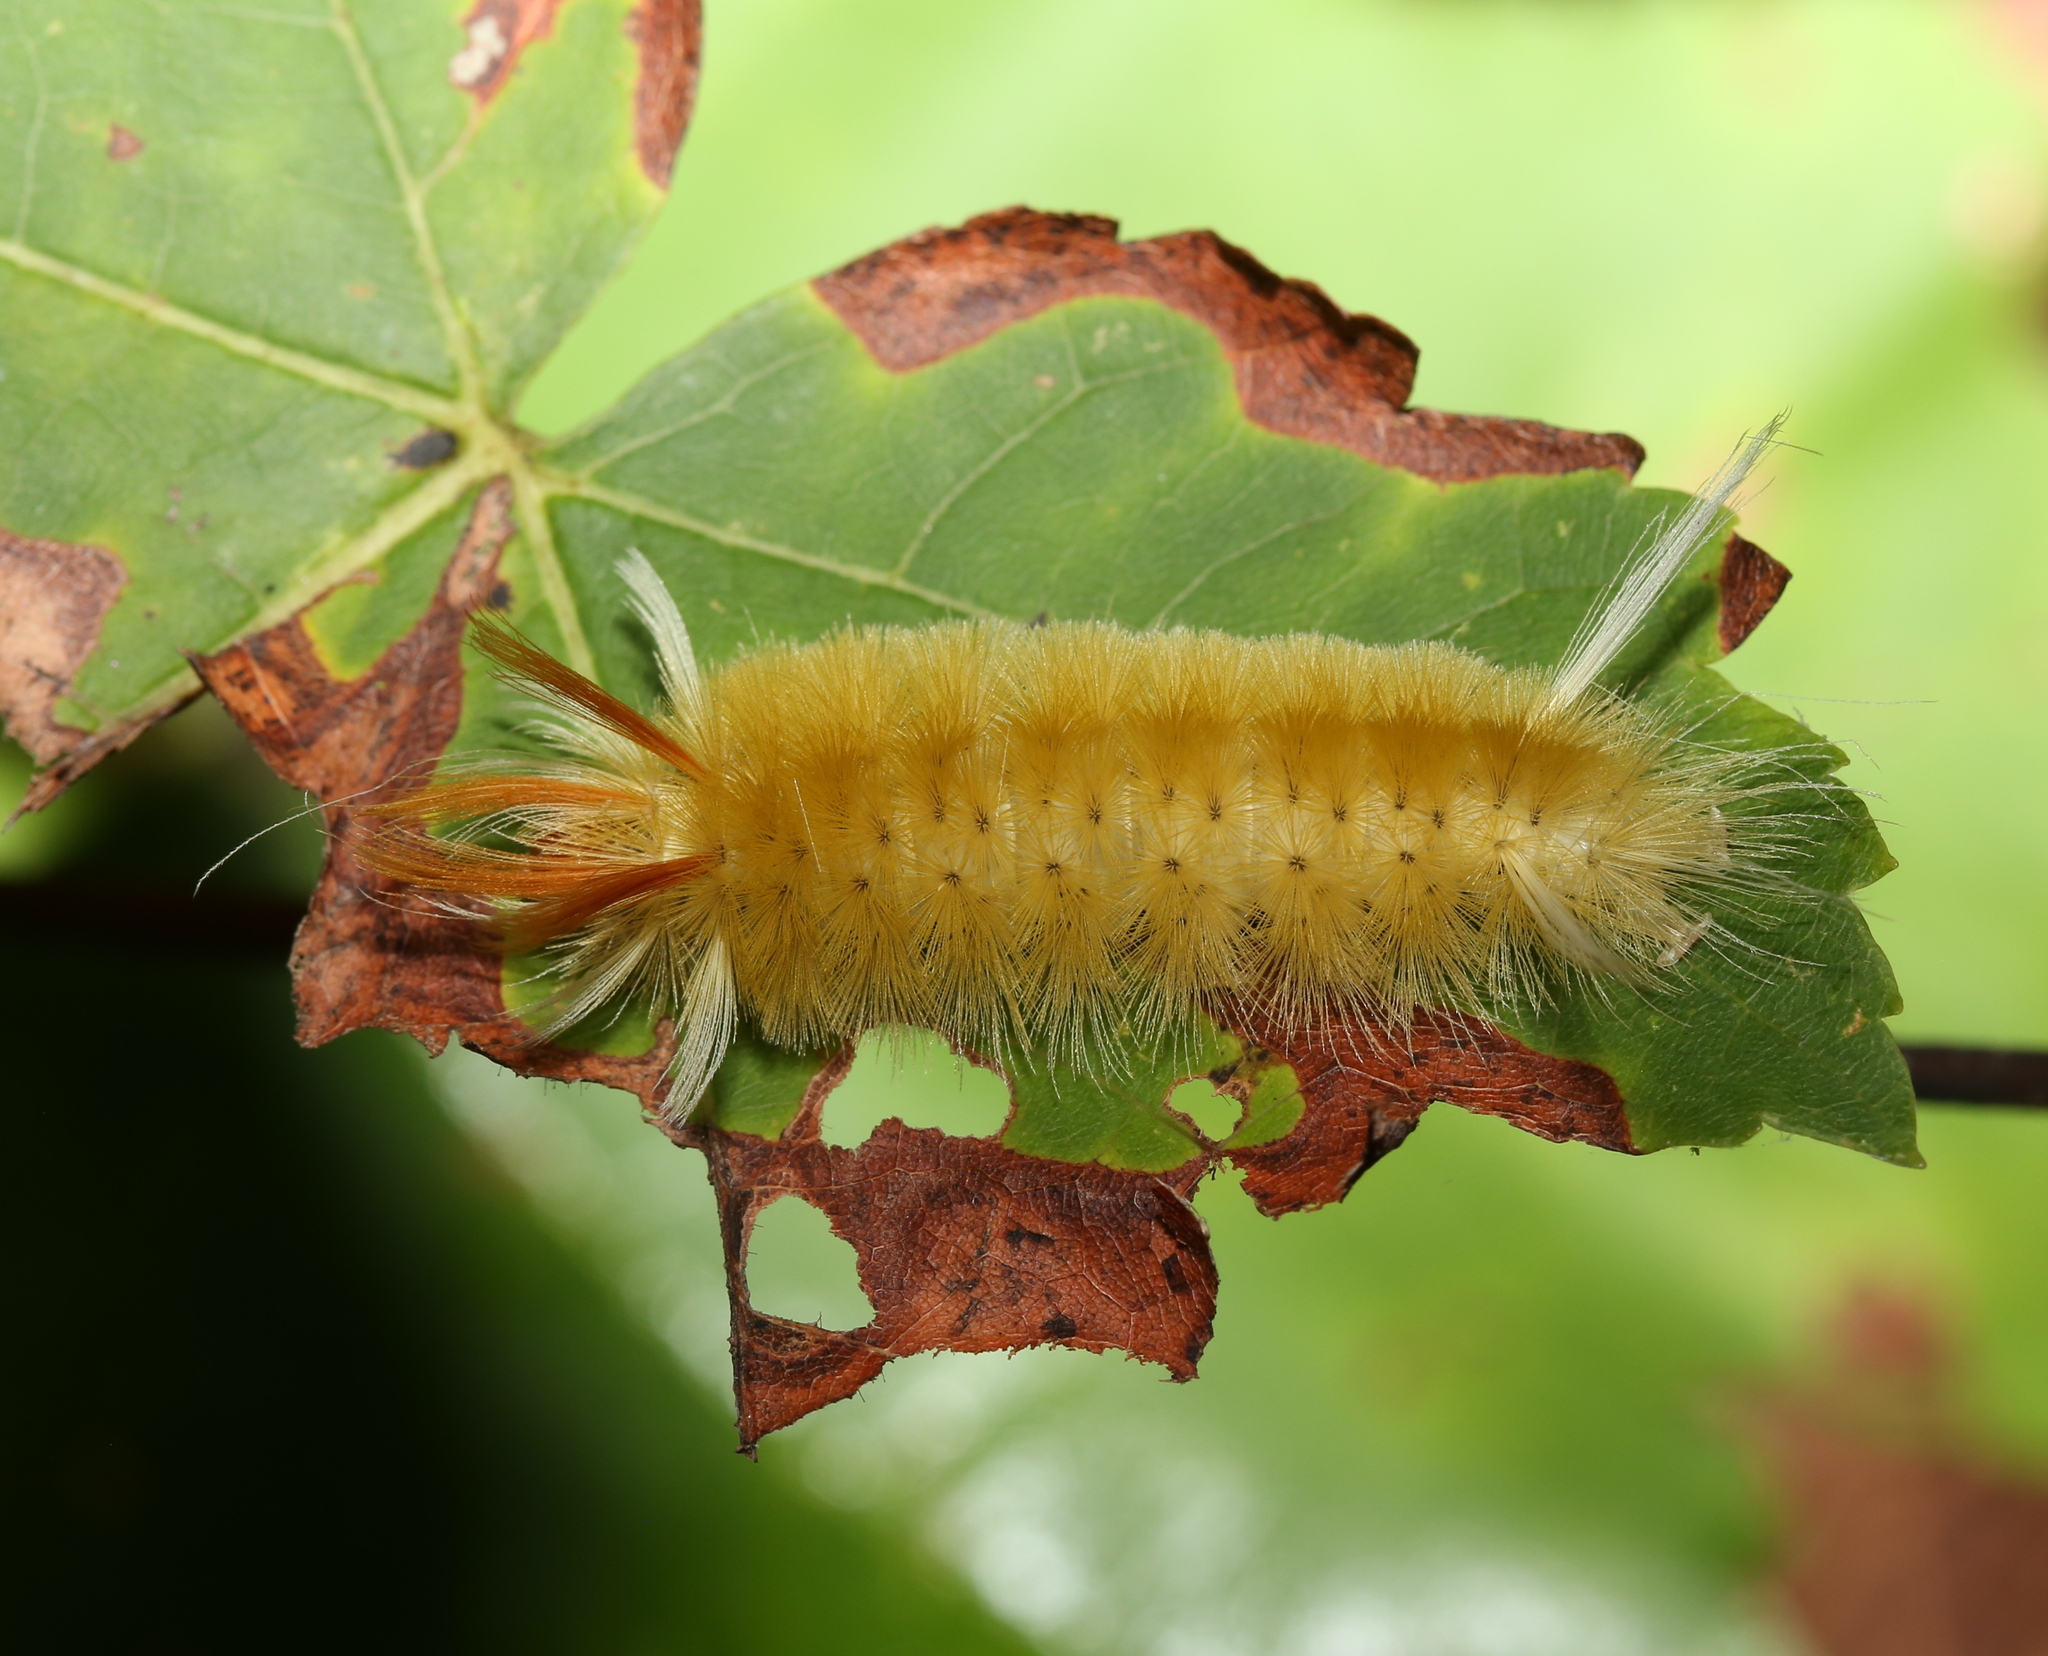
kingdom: Animalia
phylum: Arthropoda
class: Insecta
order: Lepidoptera
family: Erebidae
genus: Halysidota
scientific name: Halysidota harrisii
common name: Sycamore tussock moth
